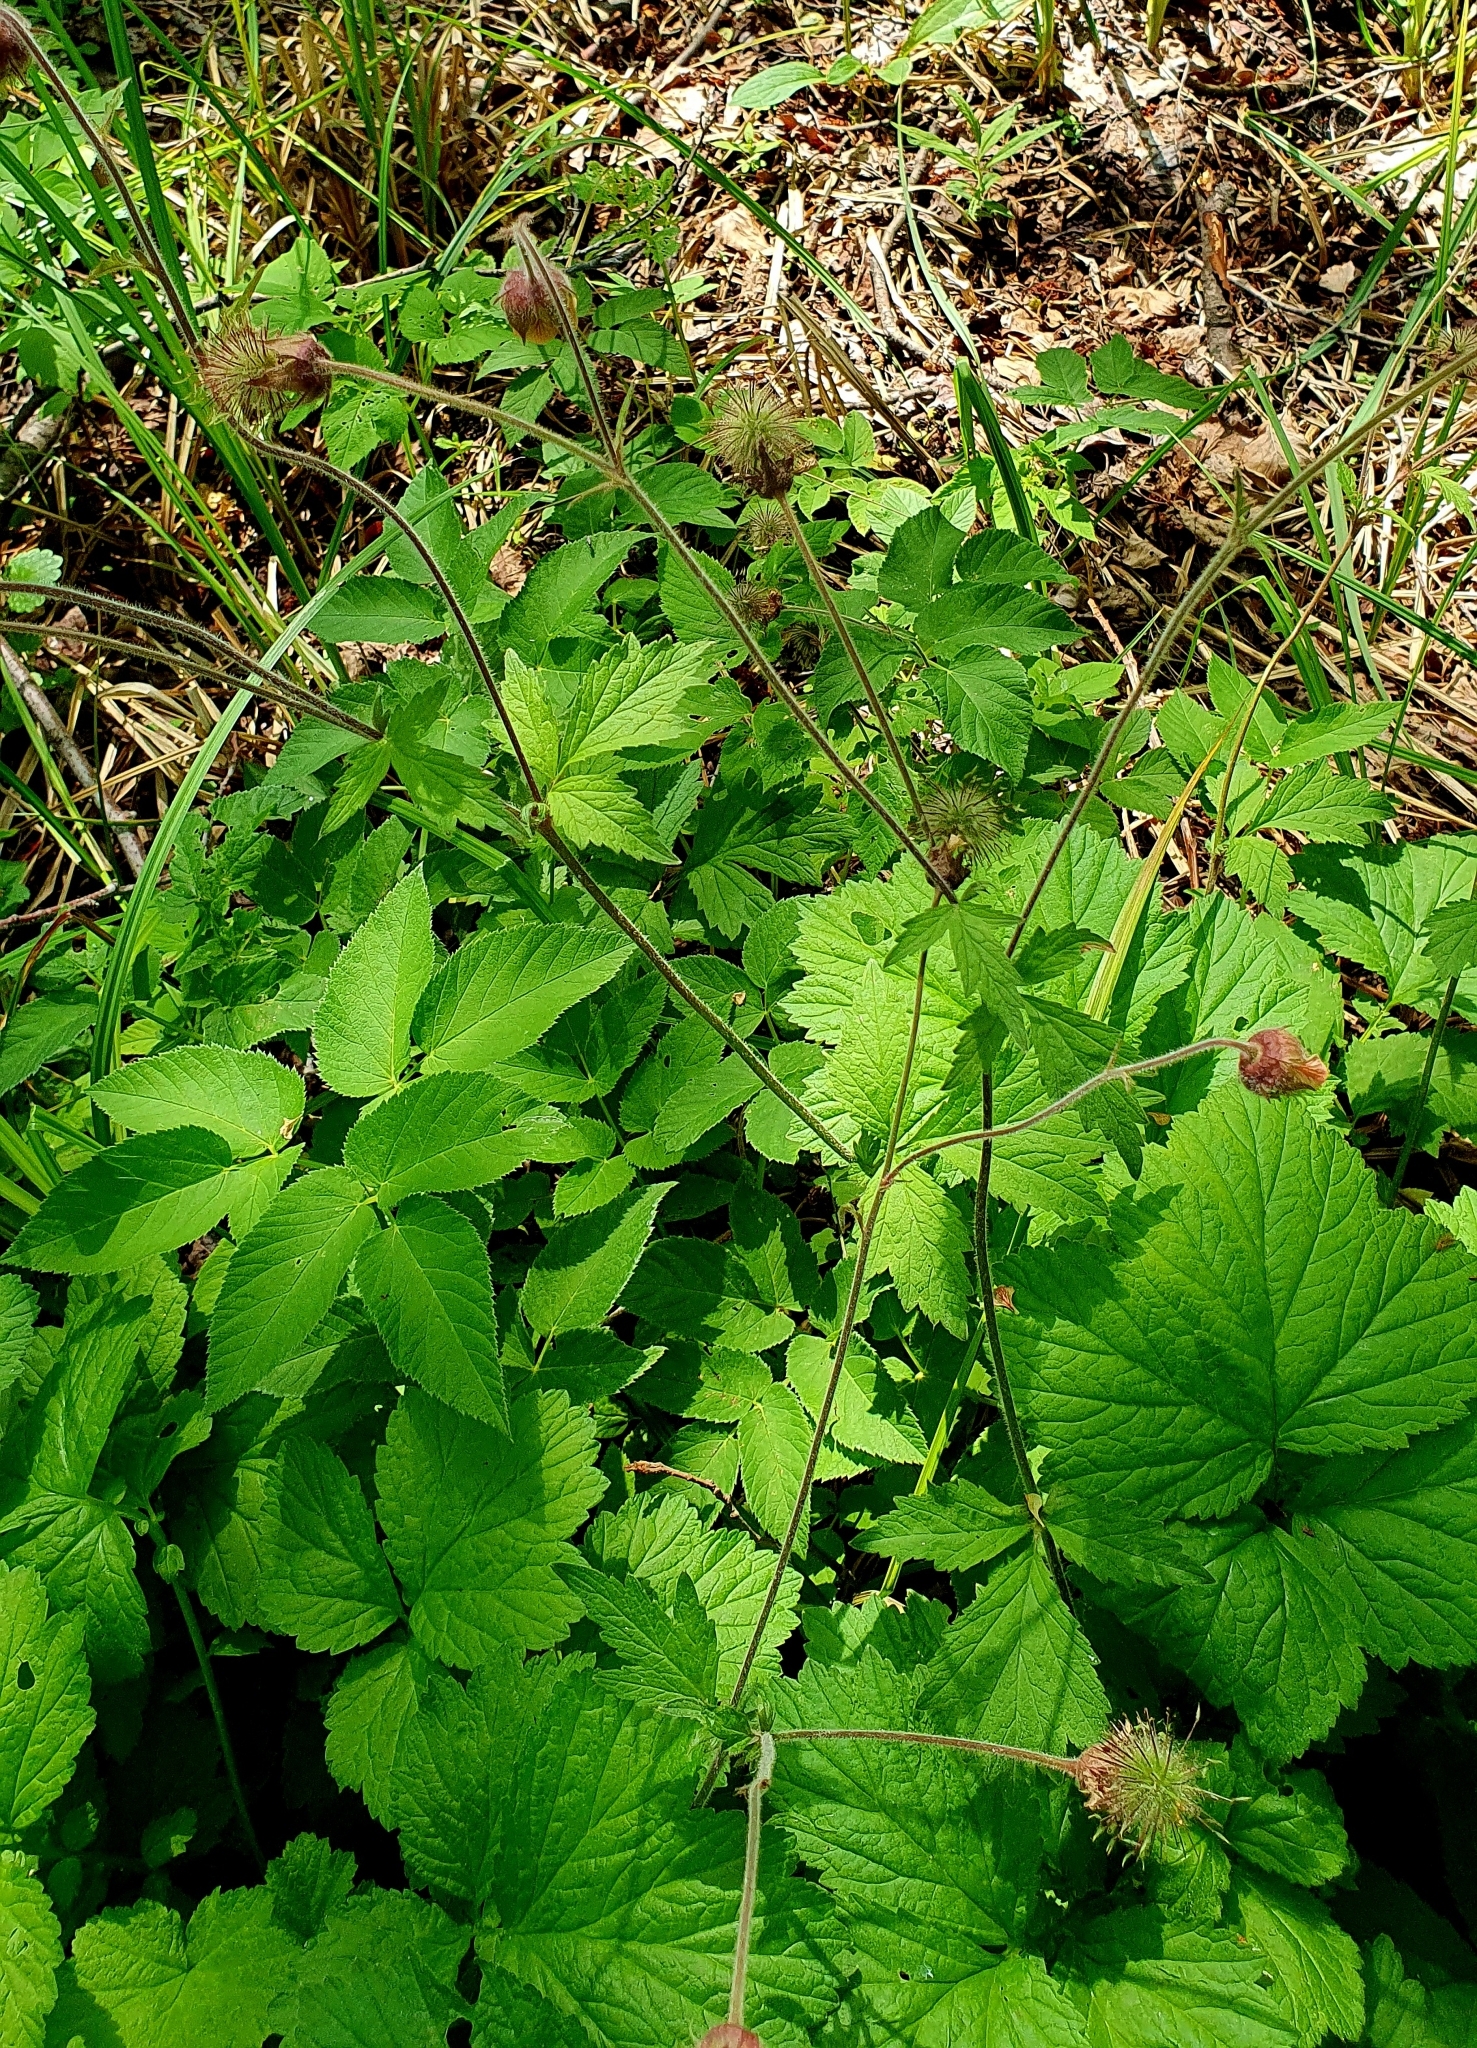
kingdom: Plantae
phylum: Tracheophyta
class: Magnoliopsida
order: Rosales
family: Rosaceae
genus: Geum
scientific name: Geum rivale
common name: Water avens
